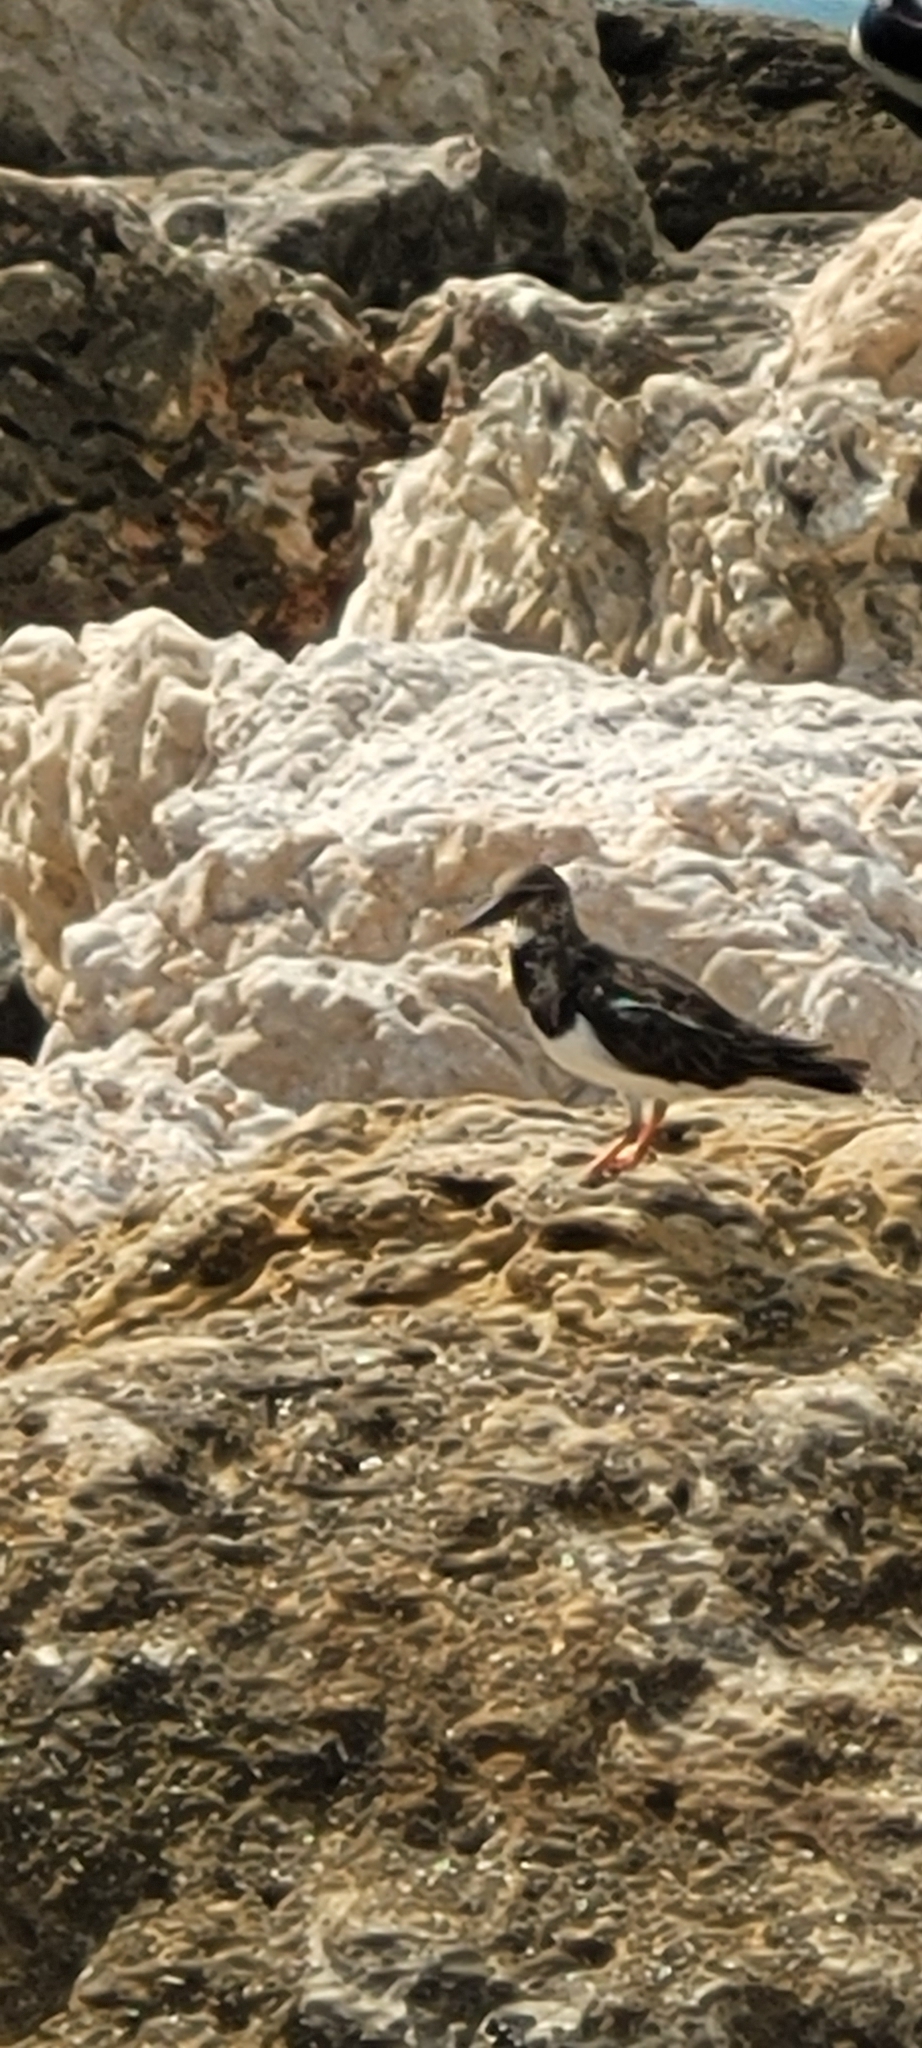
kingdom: Animalia
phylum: Chordata
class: Aves
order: Charadriiformes
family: Scolopacidae
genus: Arenaria
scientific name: Arenaria interpres
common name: Ruddy turnstone
